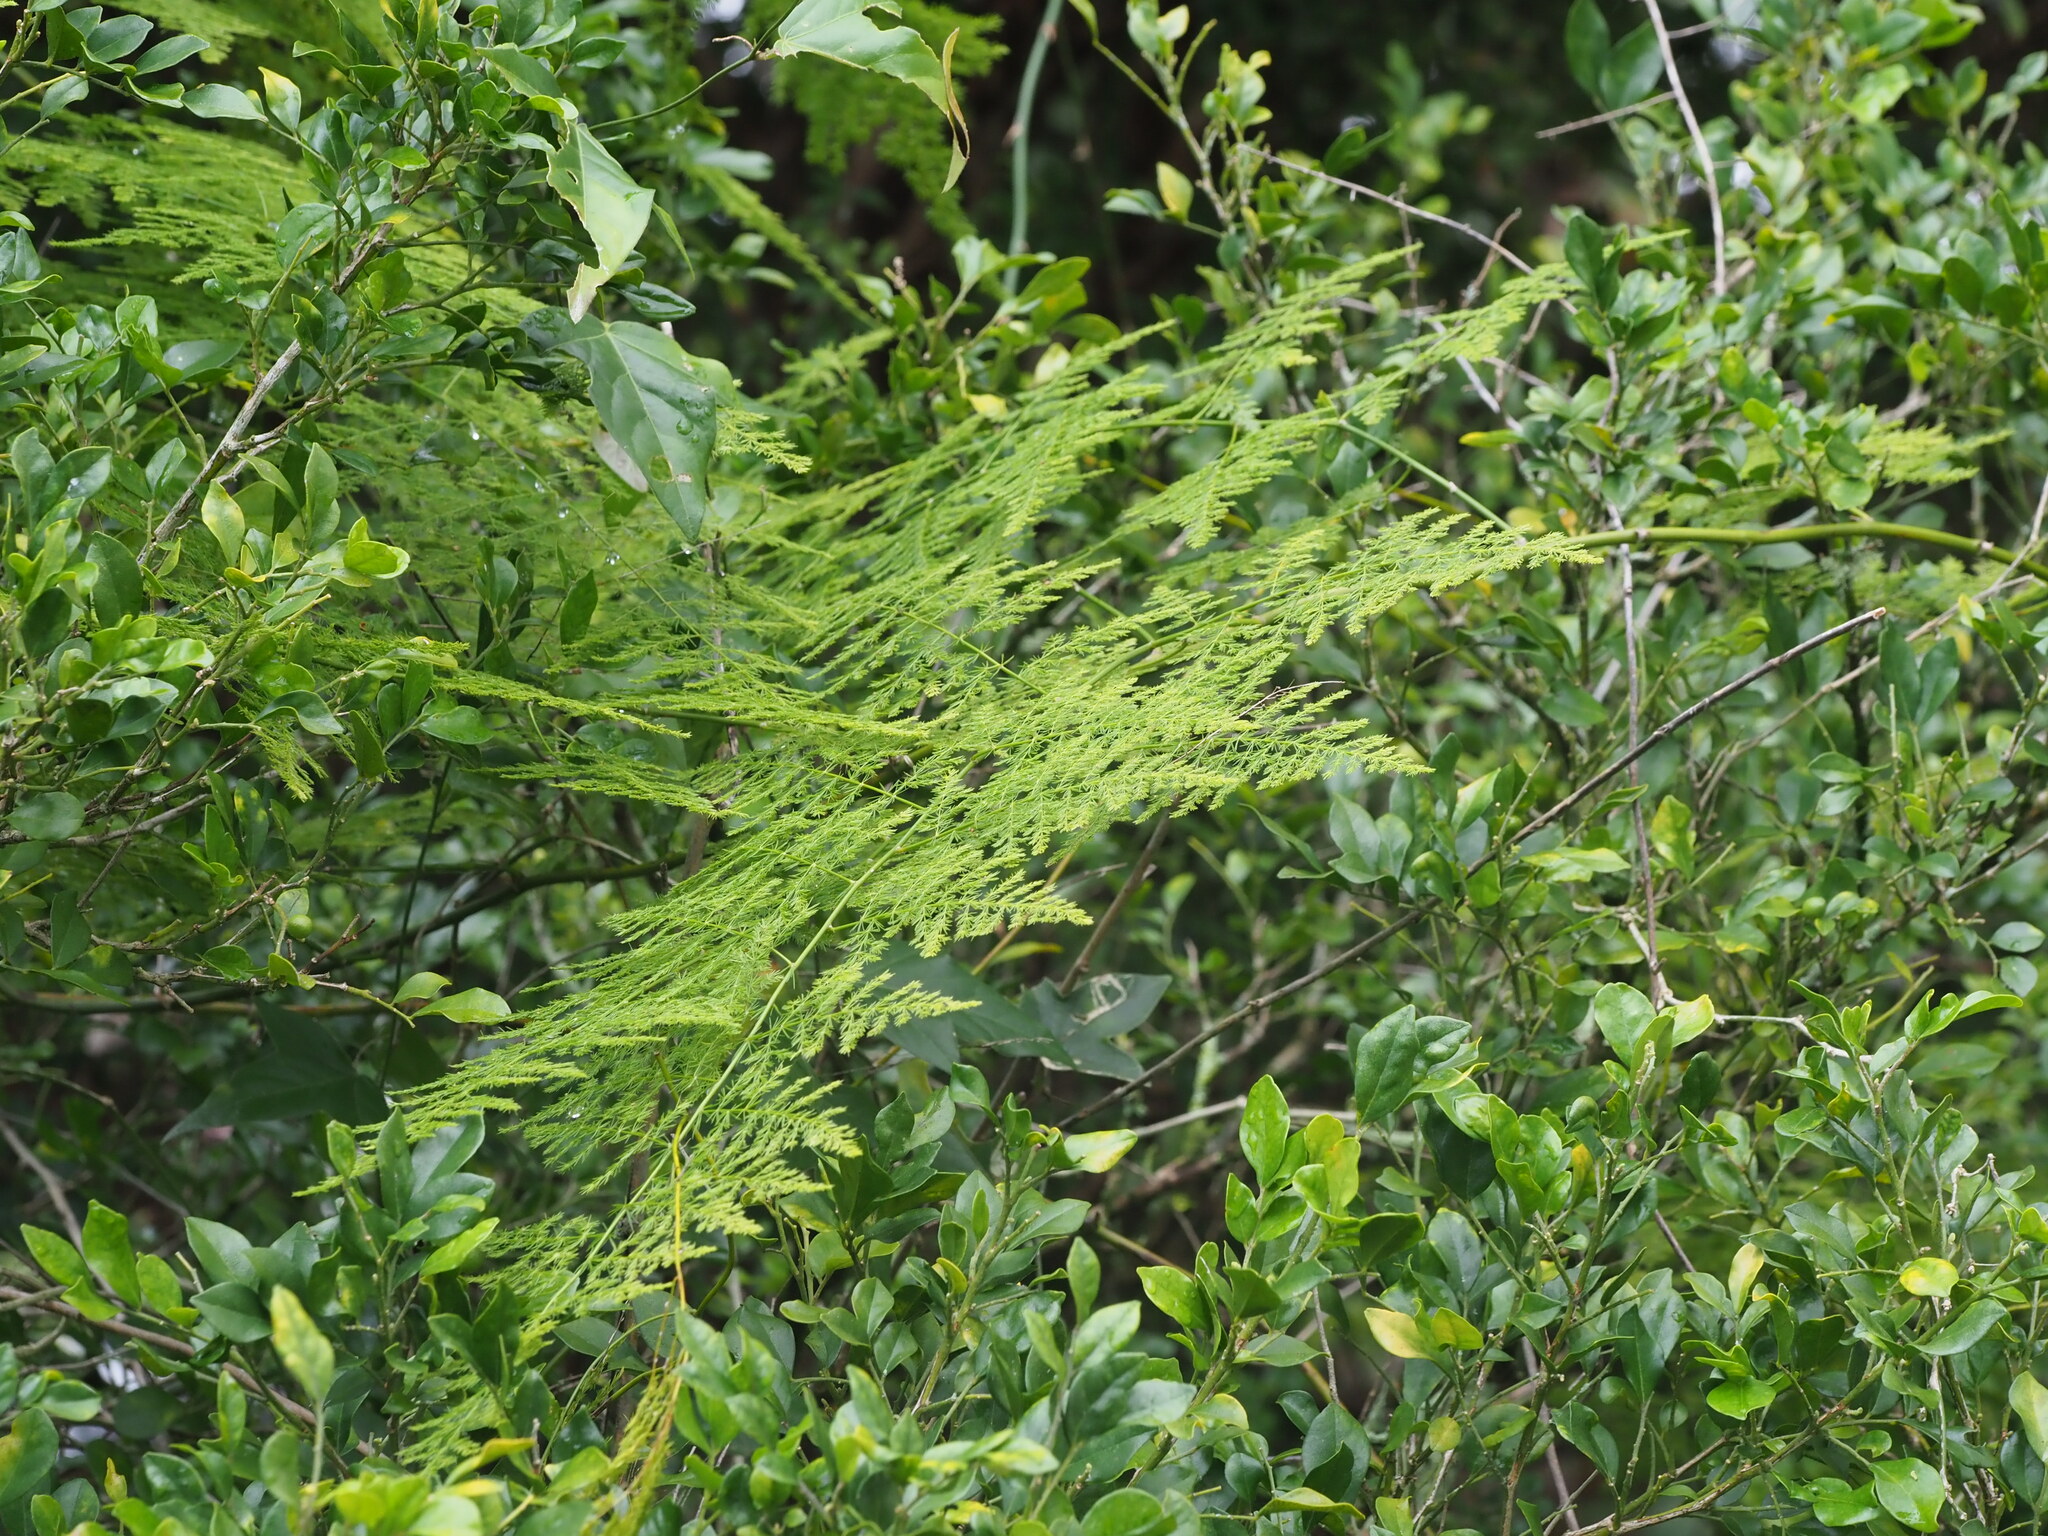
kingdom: Plantae
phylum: Tracheophyta
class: Liliopsida
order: Asparagales
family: Asparagaceae
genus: Asparagus
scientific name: Asparagus setaceus
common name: Common asparagus fern
